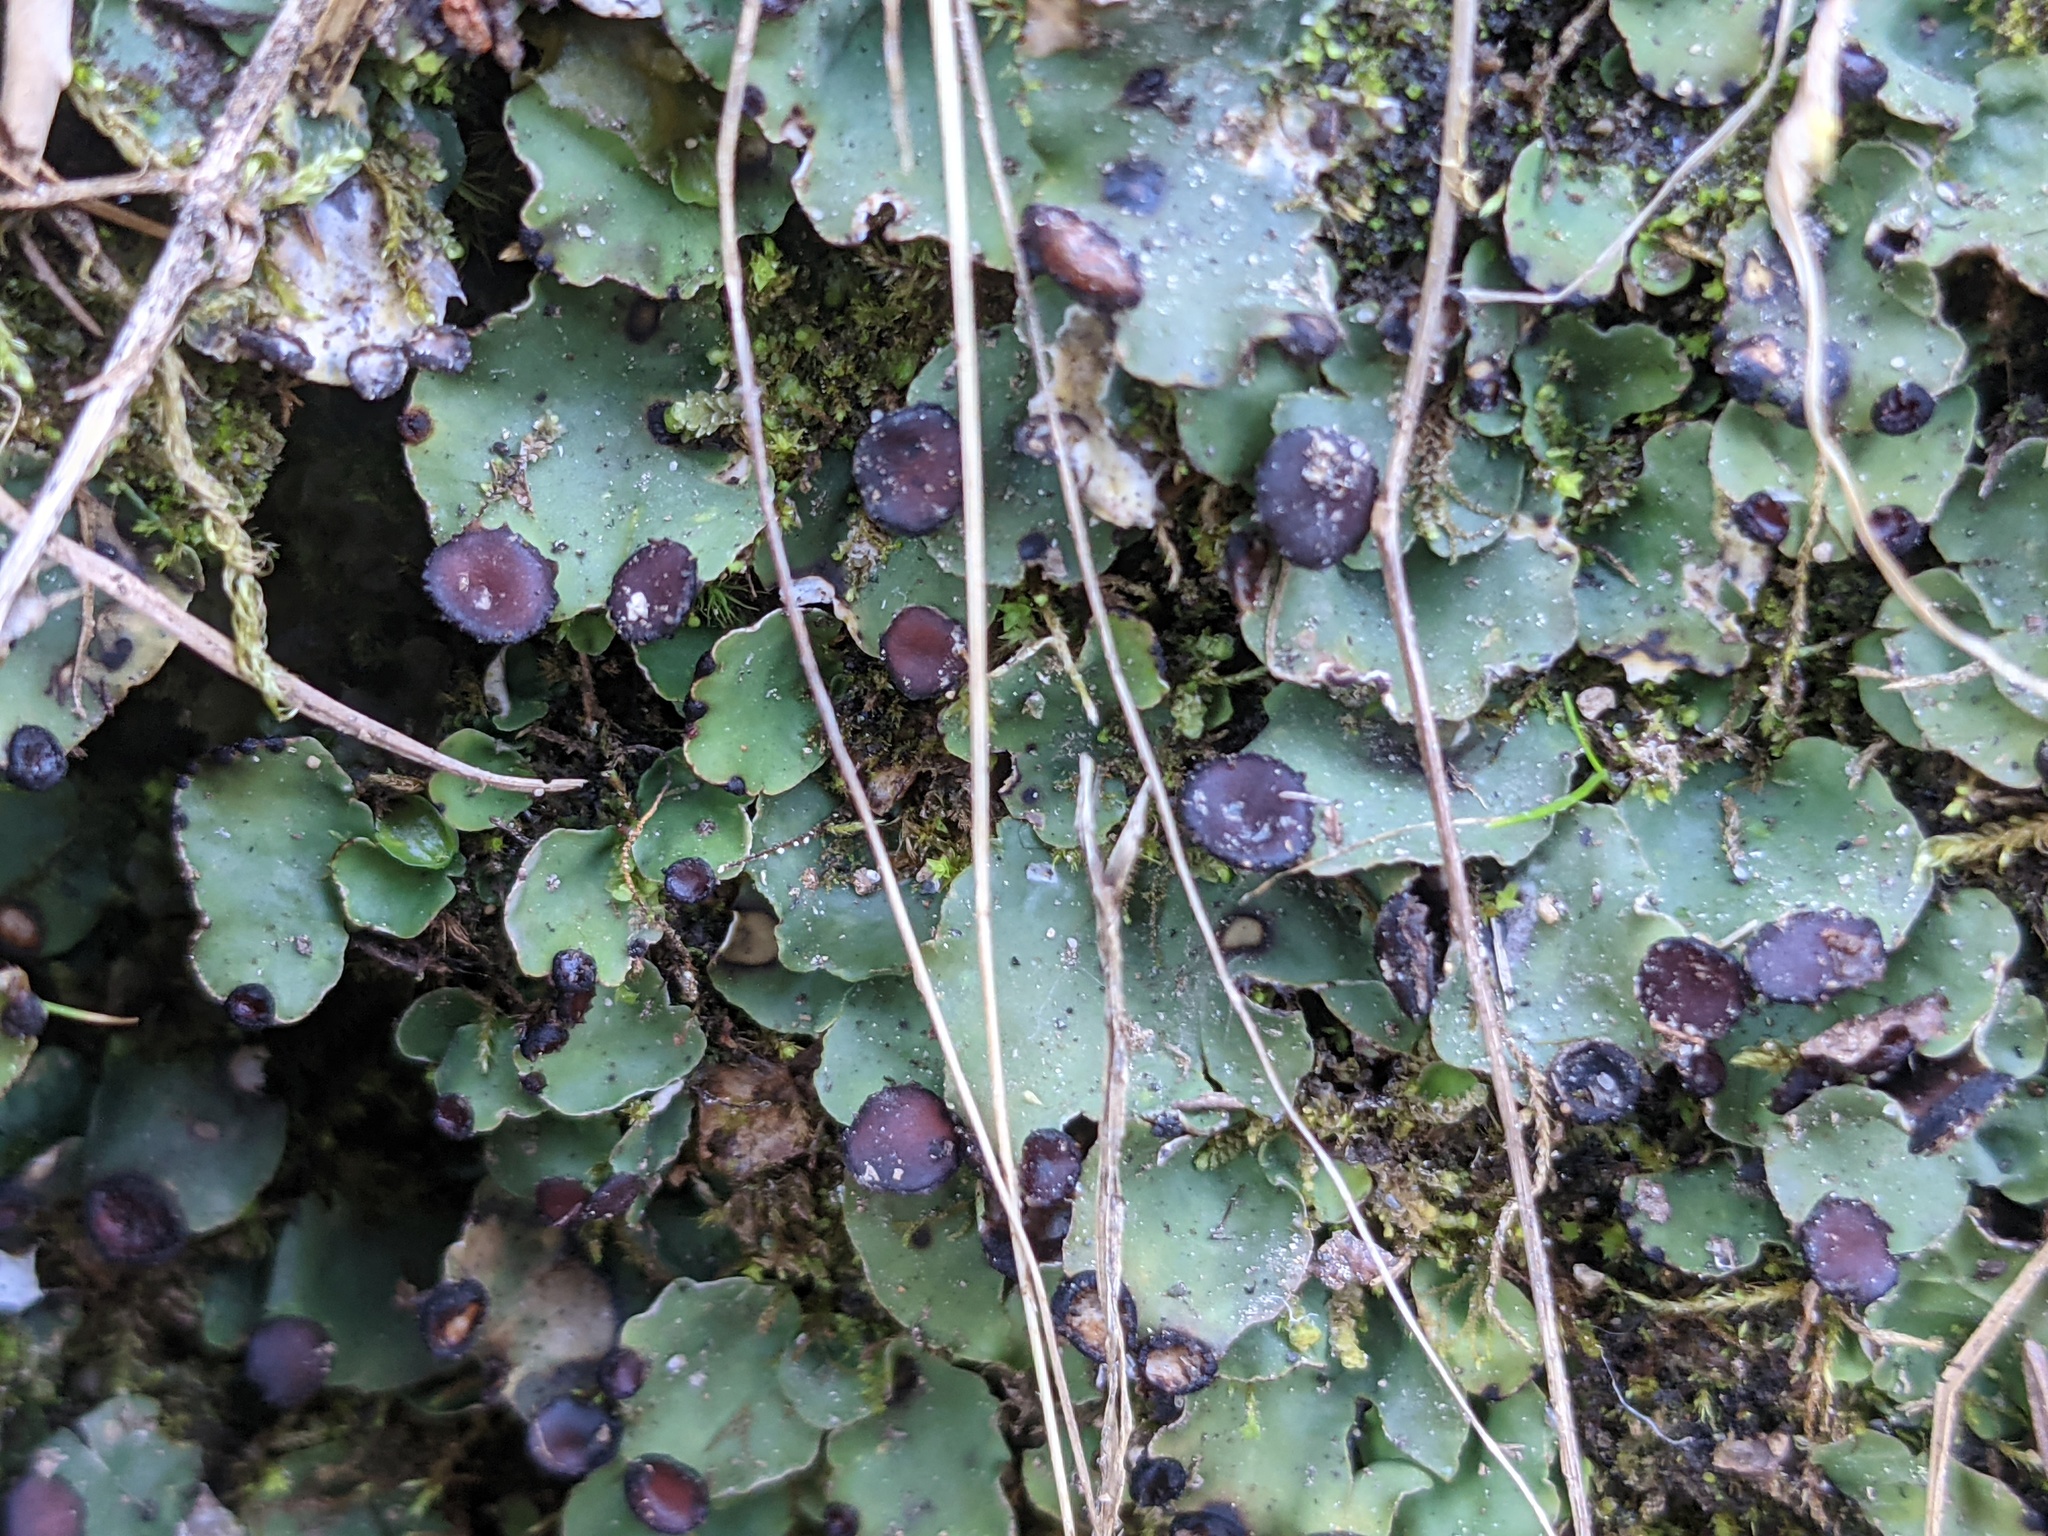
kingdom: Fungi
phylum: Ascomycota
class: Lecanoromycetes
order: Peltigerales
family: Peltigeraceae
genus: Peltigera
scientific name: Peltigera venosa
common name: Pixie gowns lichen
